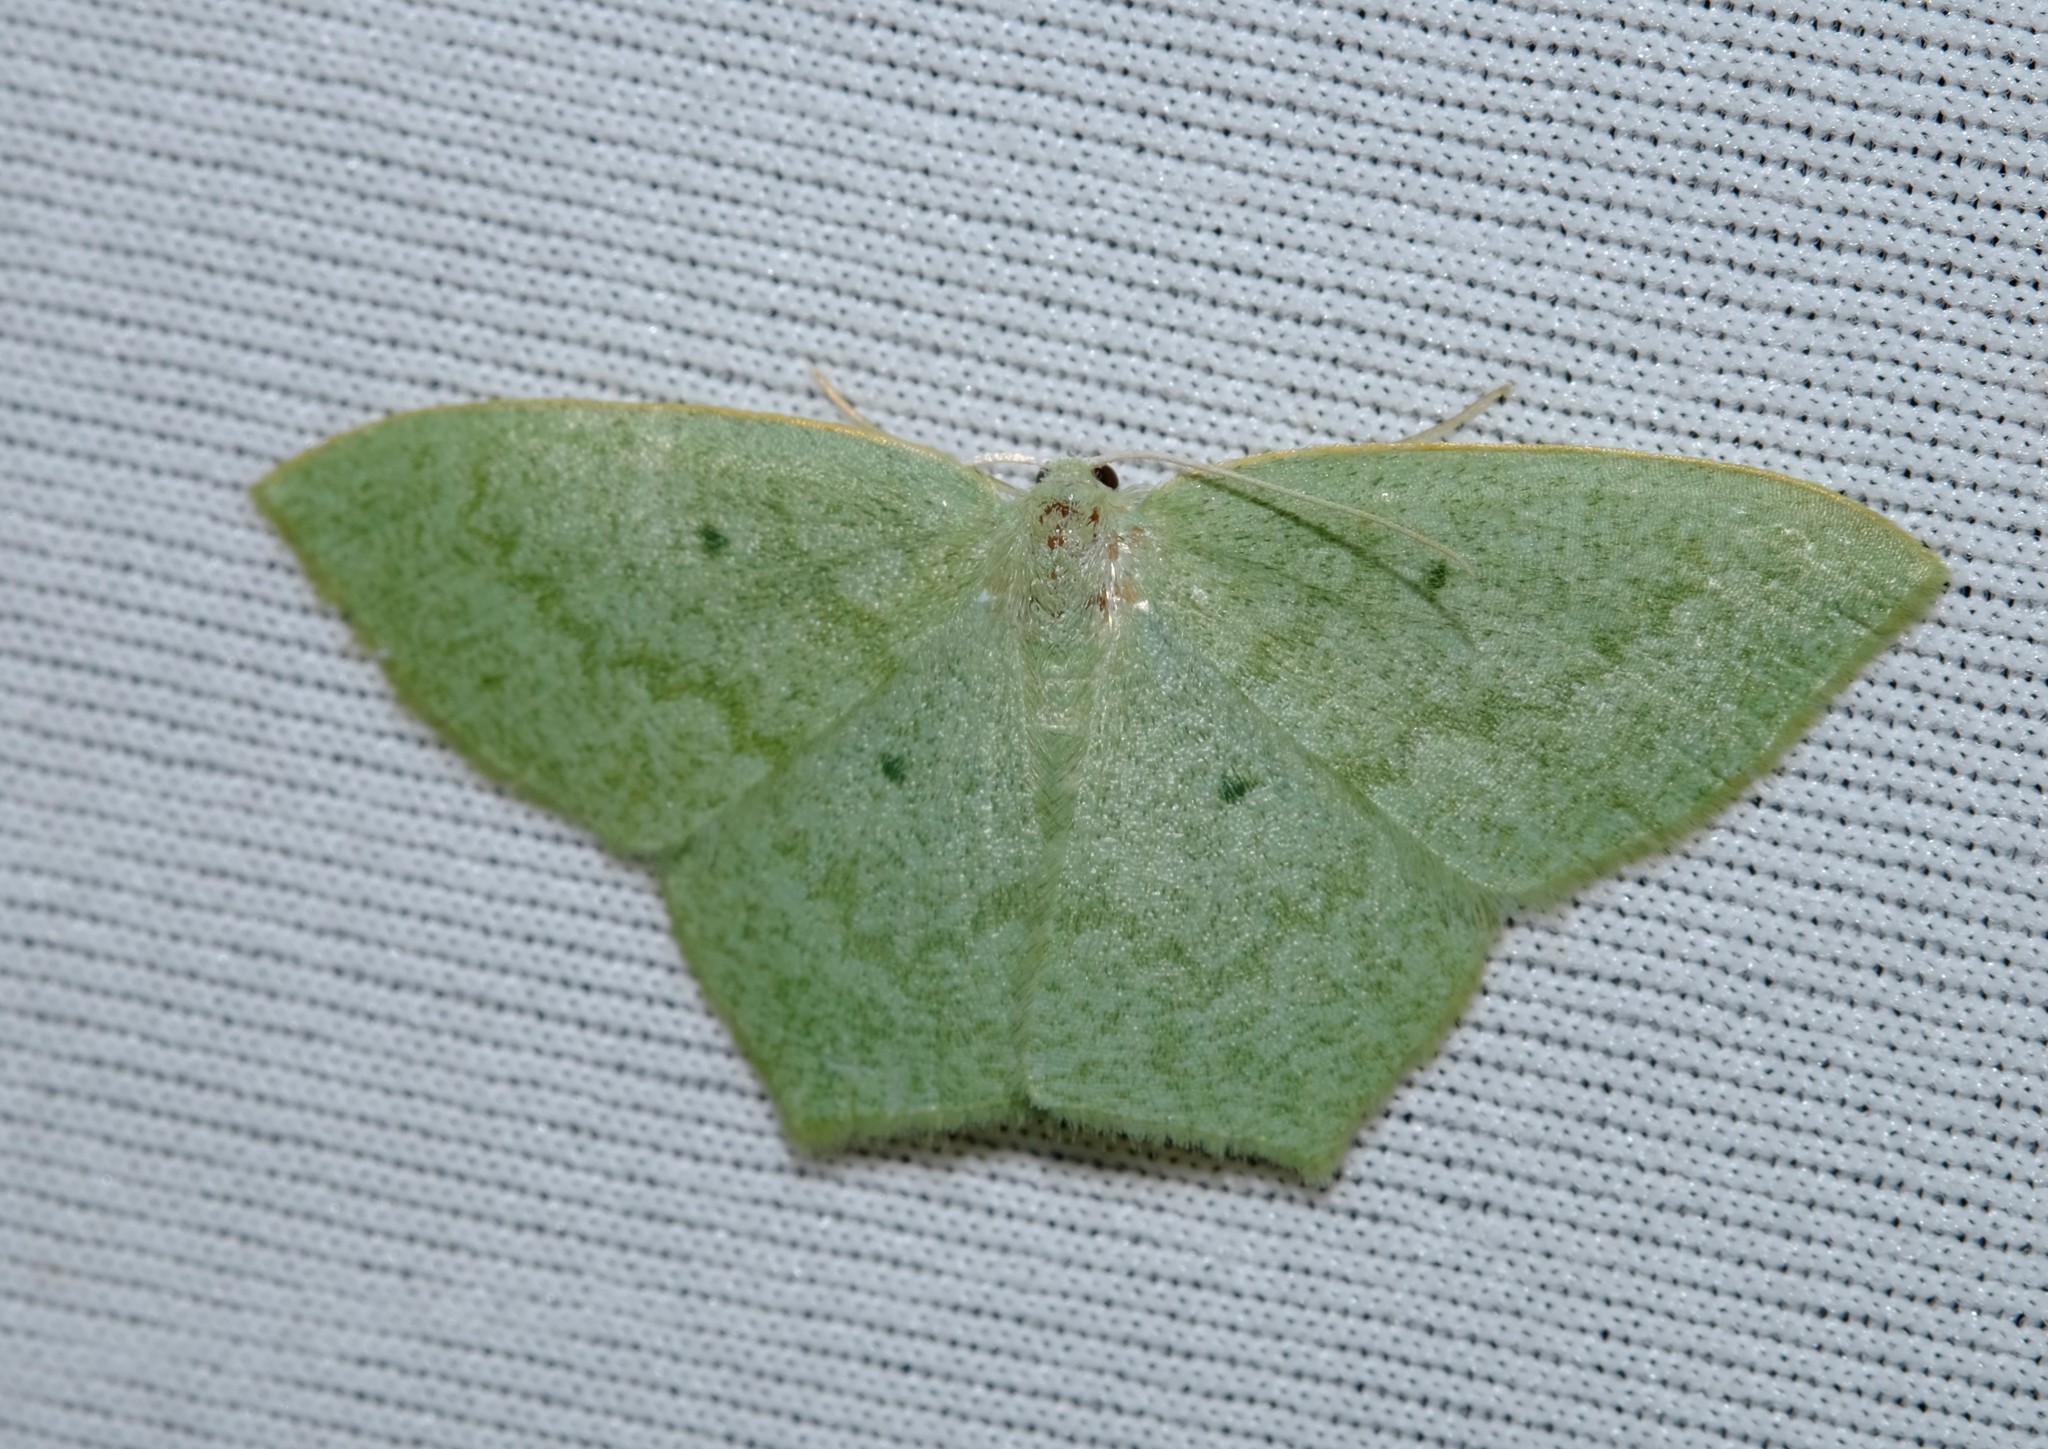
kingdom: Animalia
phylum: Arthropoda
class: Insecta
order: Lepidoptera
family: Geometridae
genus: Maxates
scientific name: Maxates centrophylla
